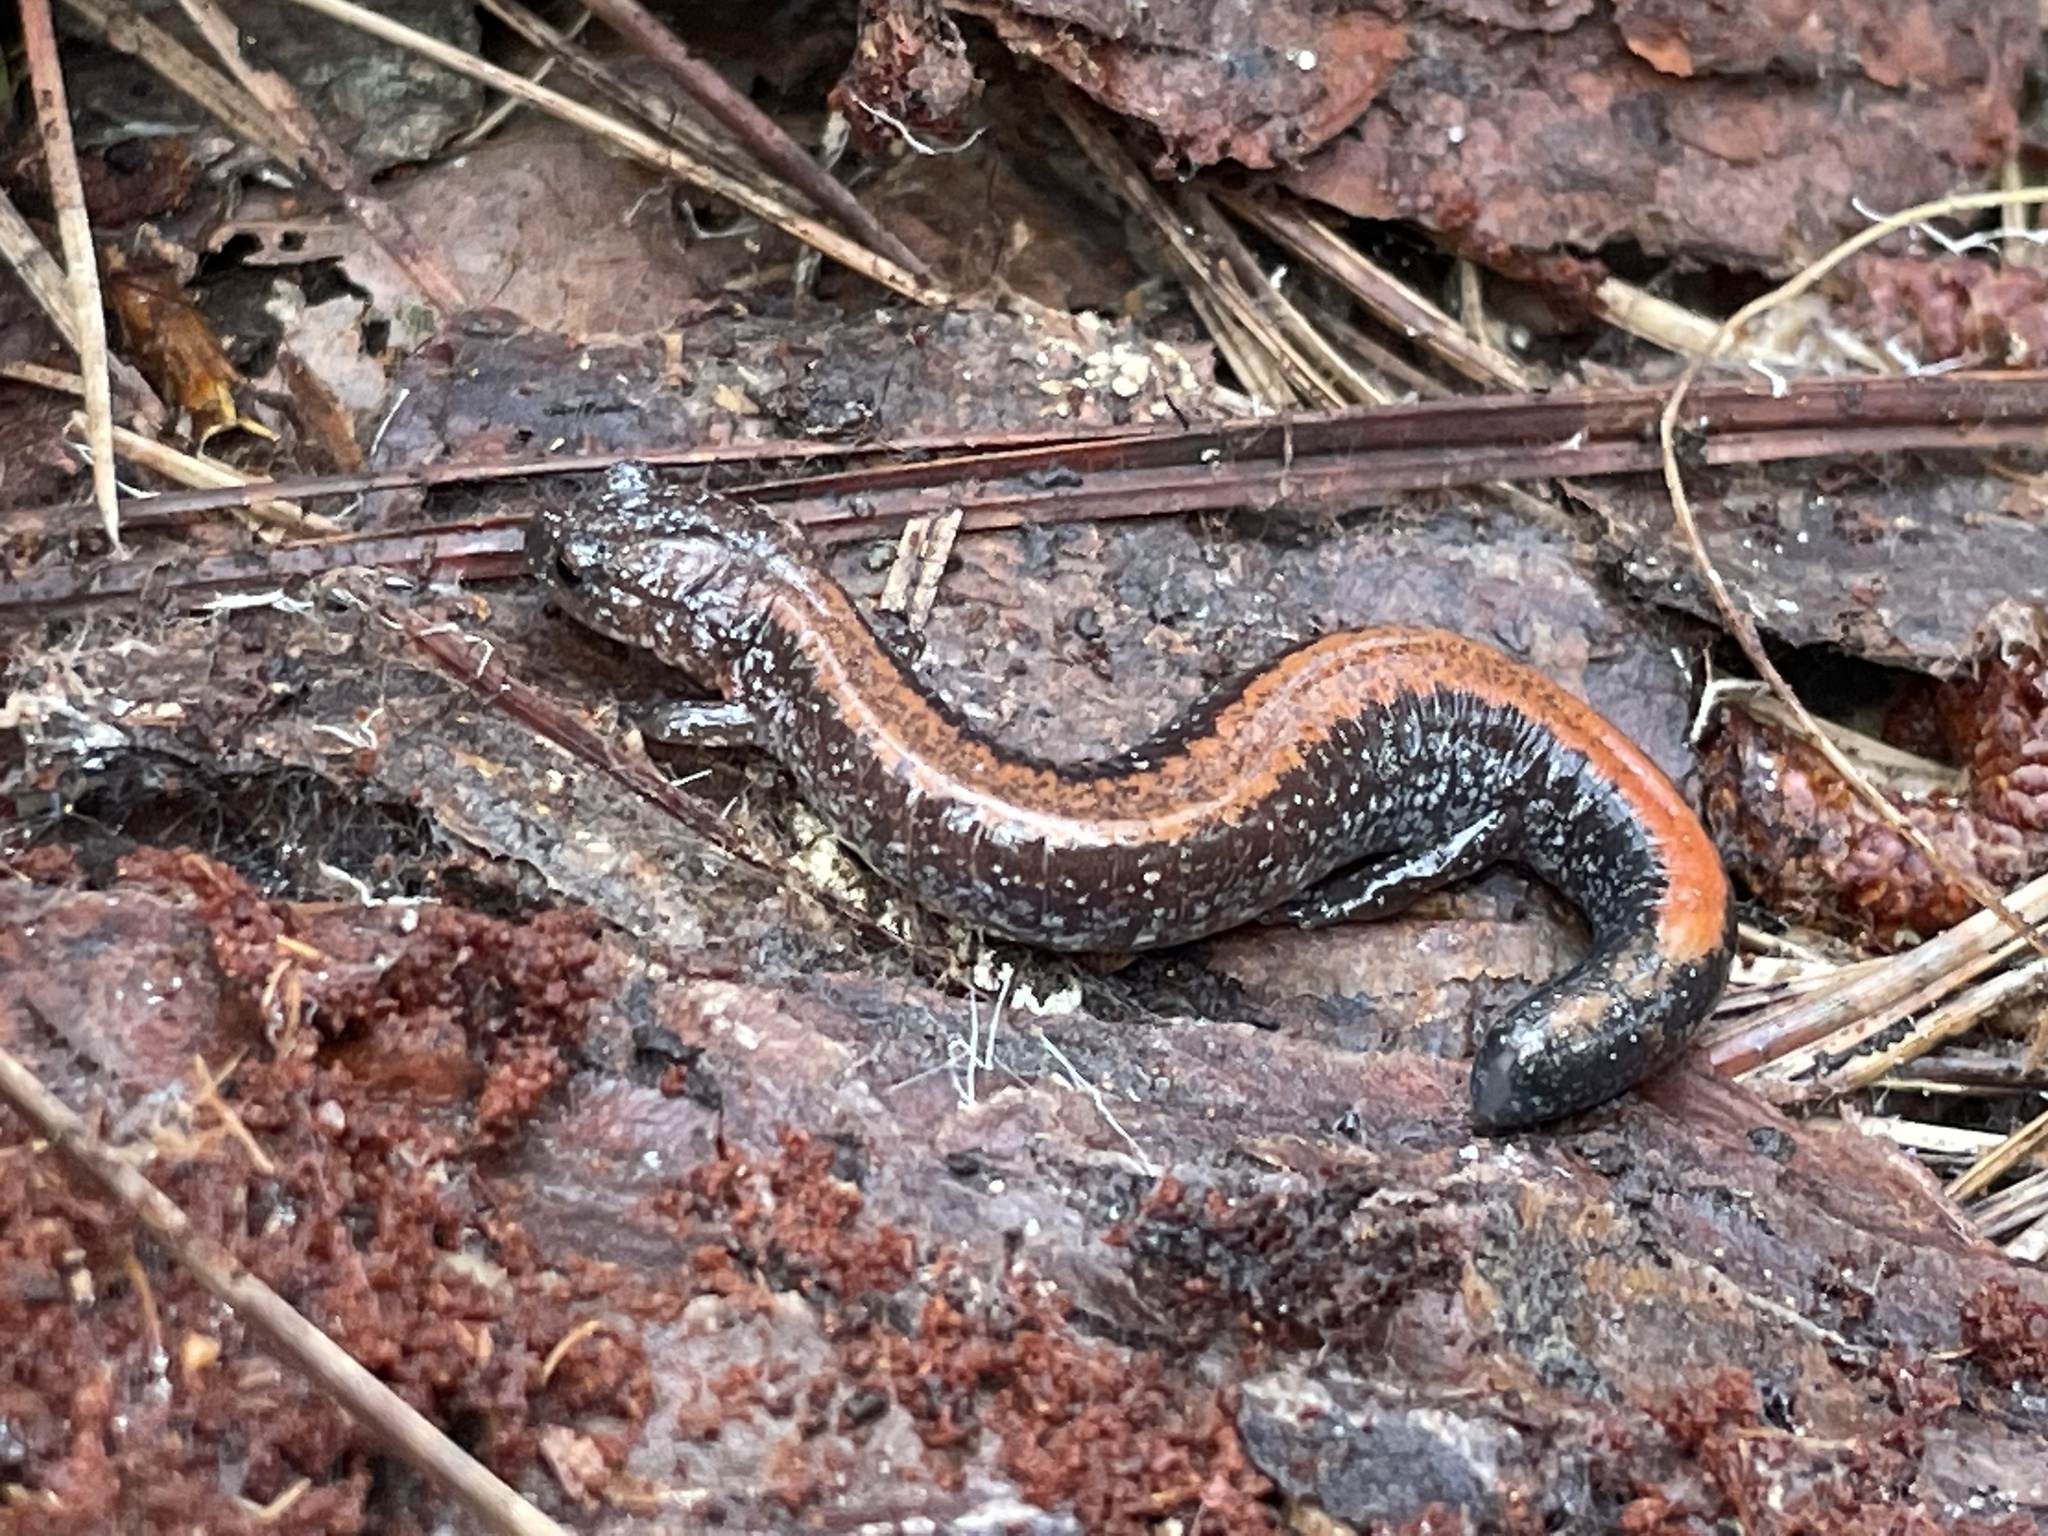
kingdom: Animalia
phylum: Chordata
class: Amphibia
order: Caudata
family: Plethodontidae
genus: Plethodon
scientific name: Plethodon cinereus
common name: Redback salamander
